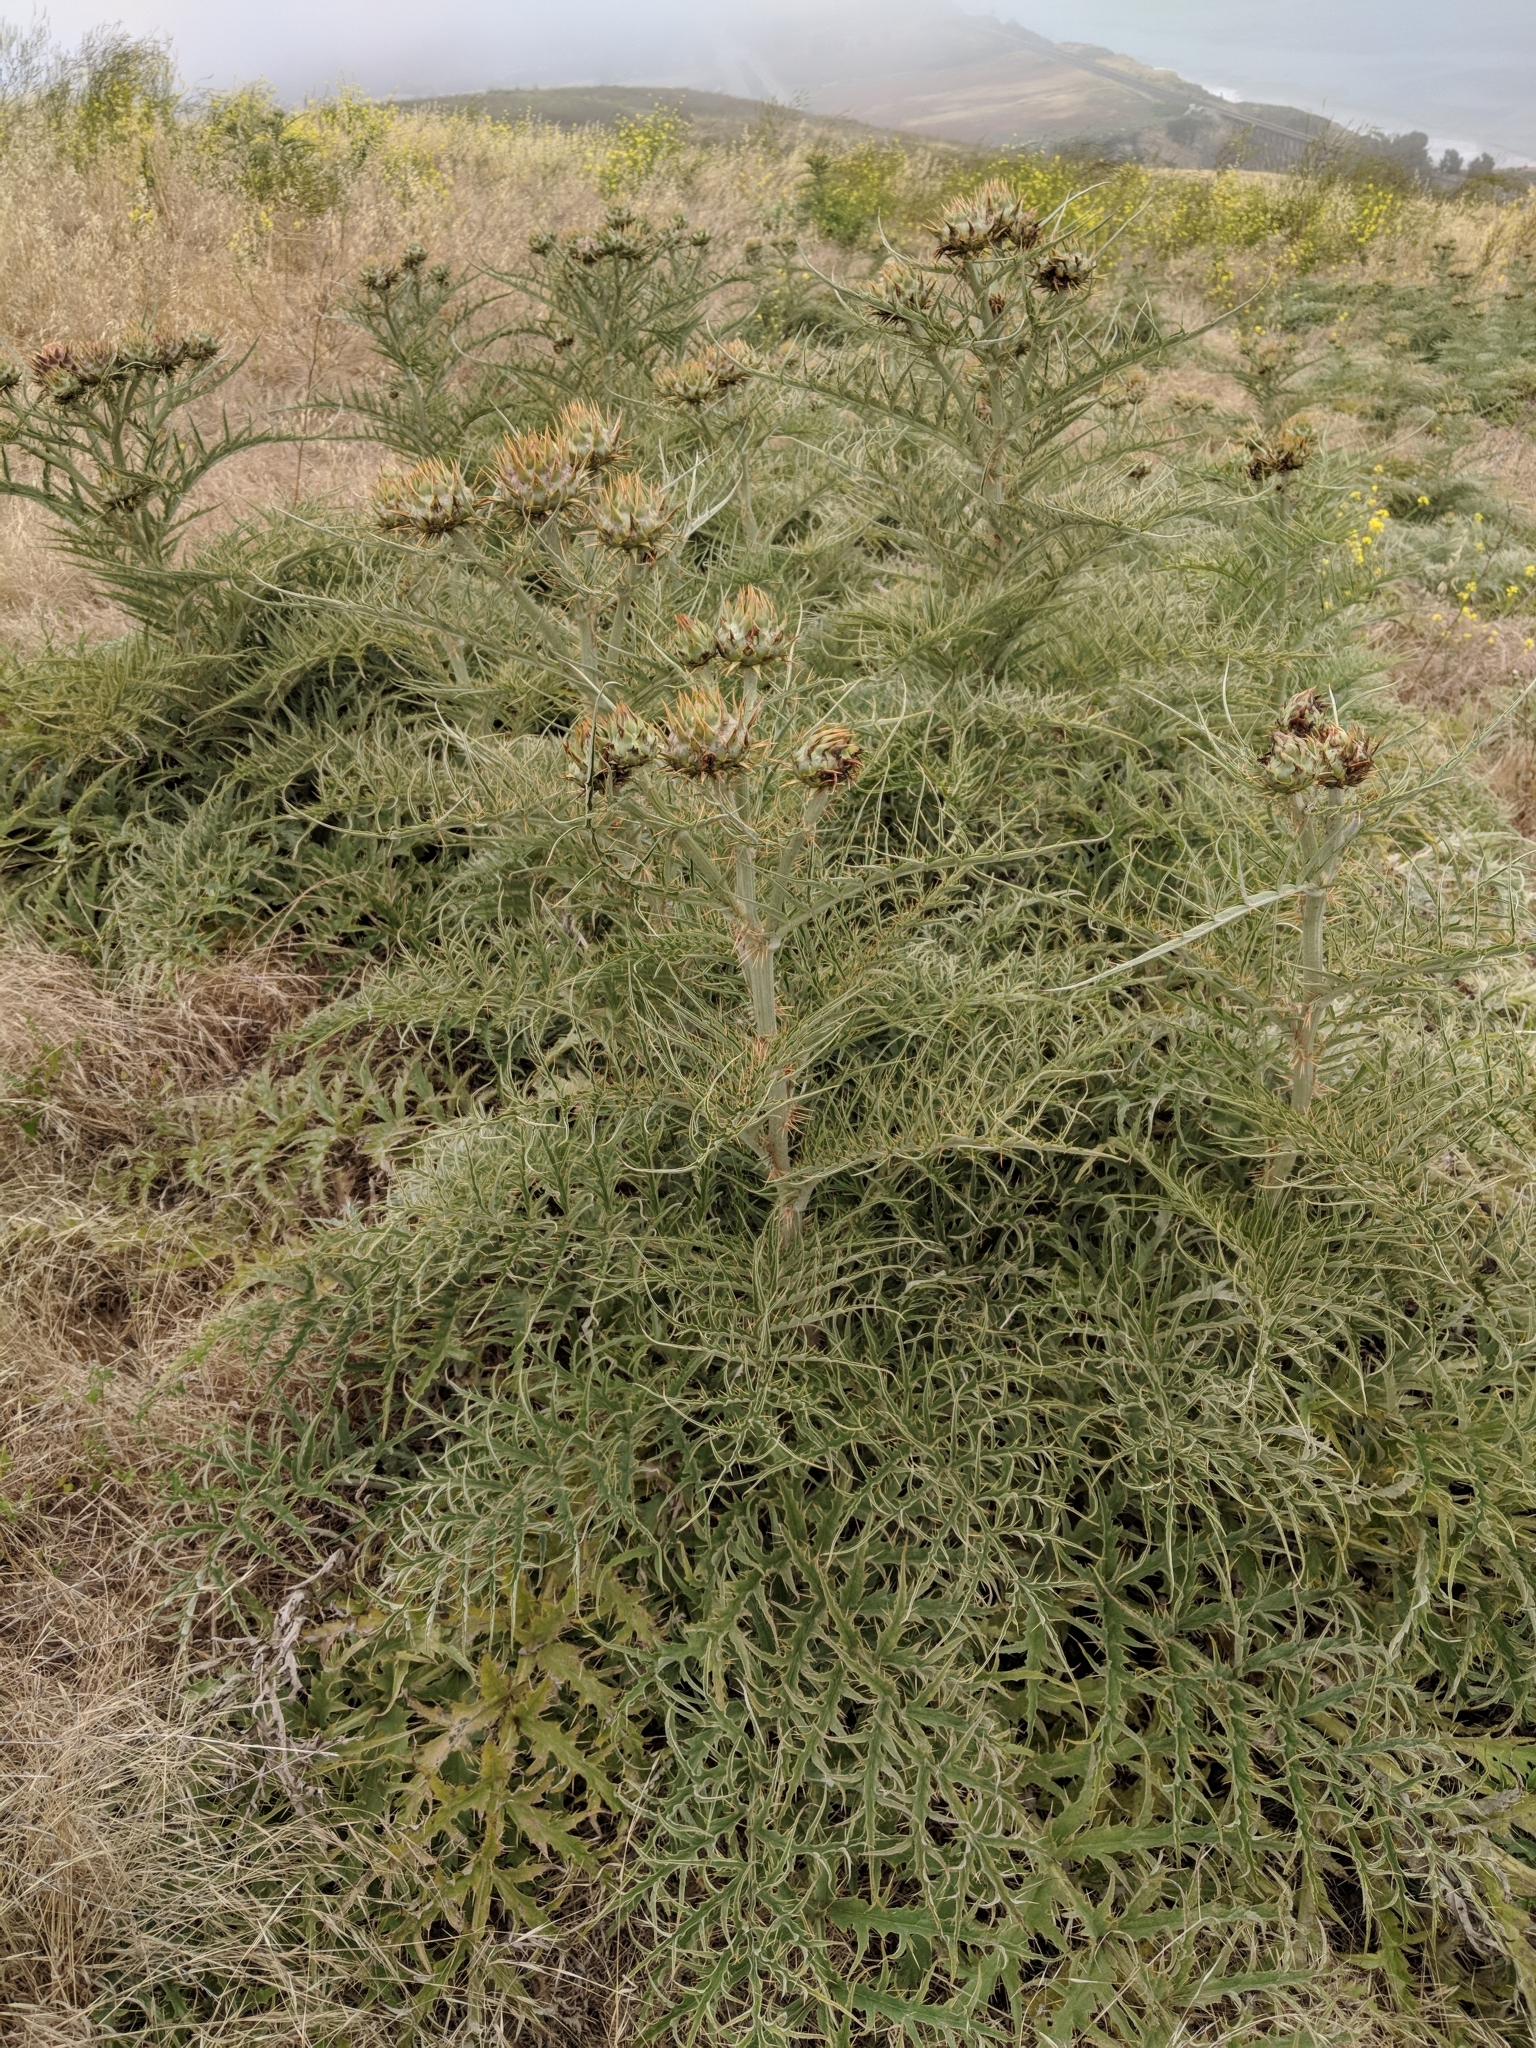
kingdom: Plantae
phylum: Tracheophyta
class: Magnoliopsida
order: Asterales
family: Asteraceae
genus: Cynara
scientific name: Cynara cardunculus
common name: Globe artichoke
